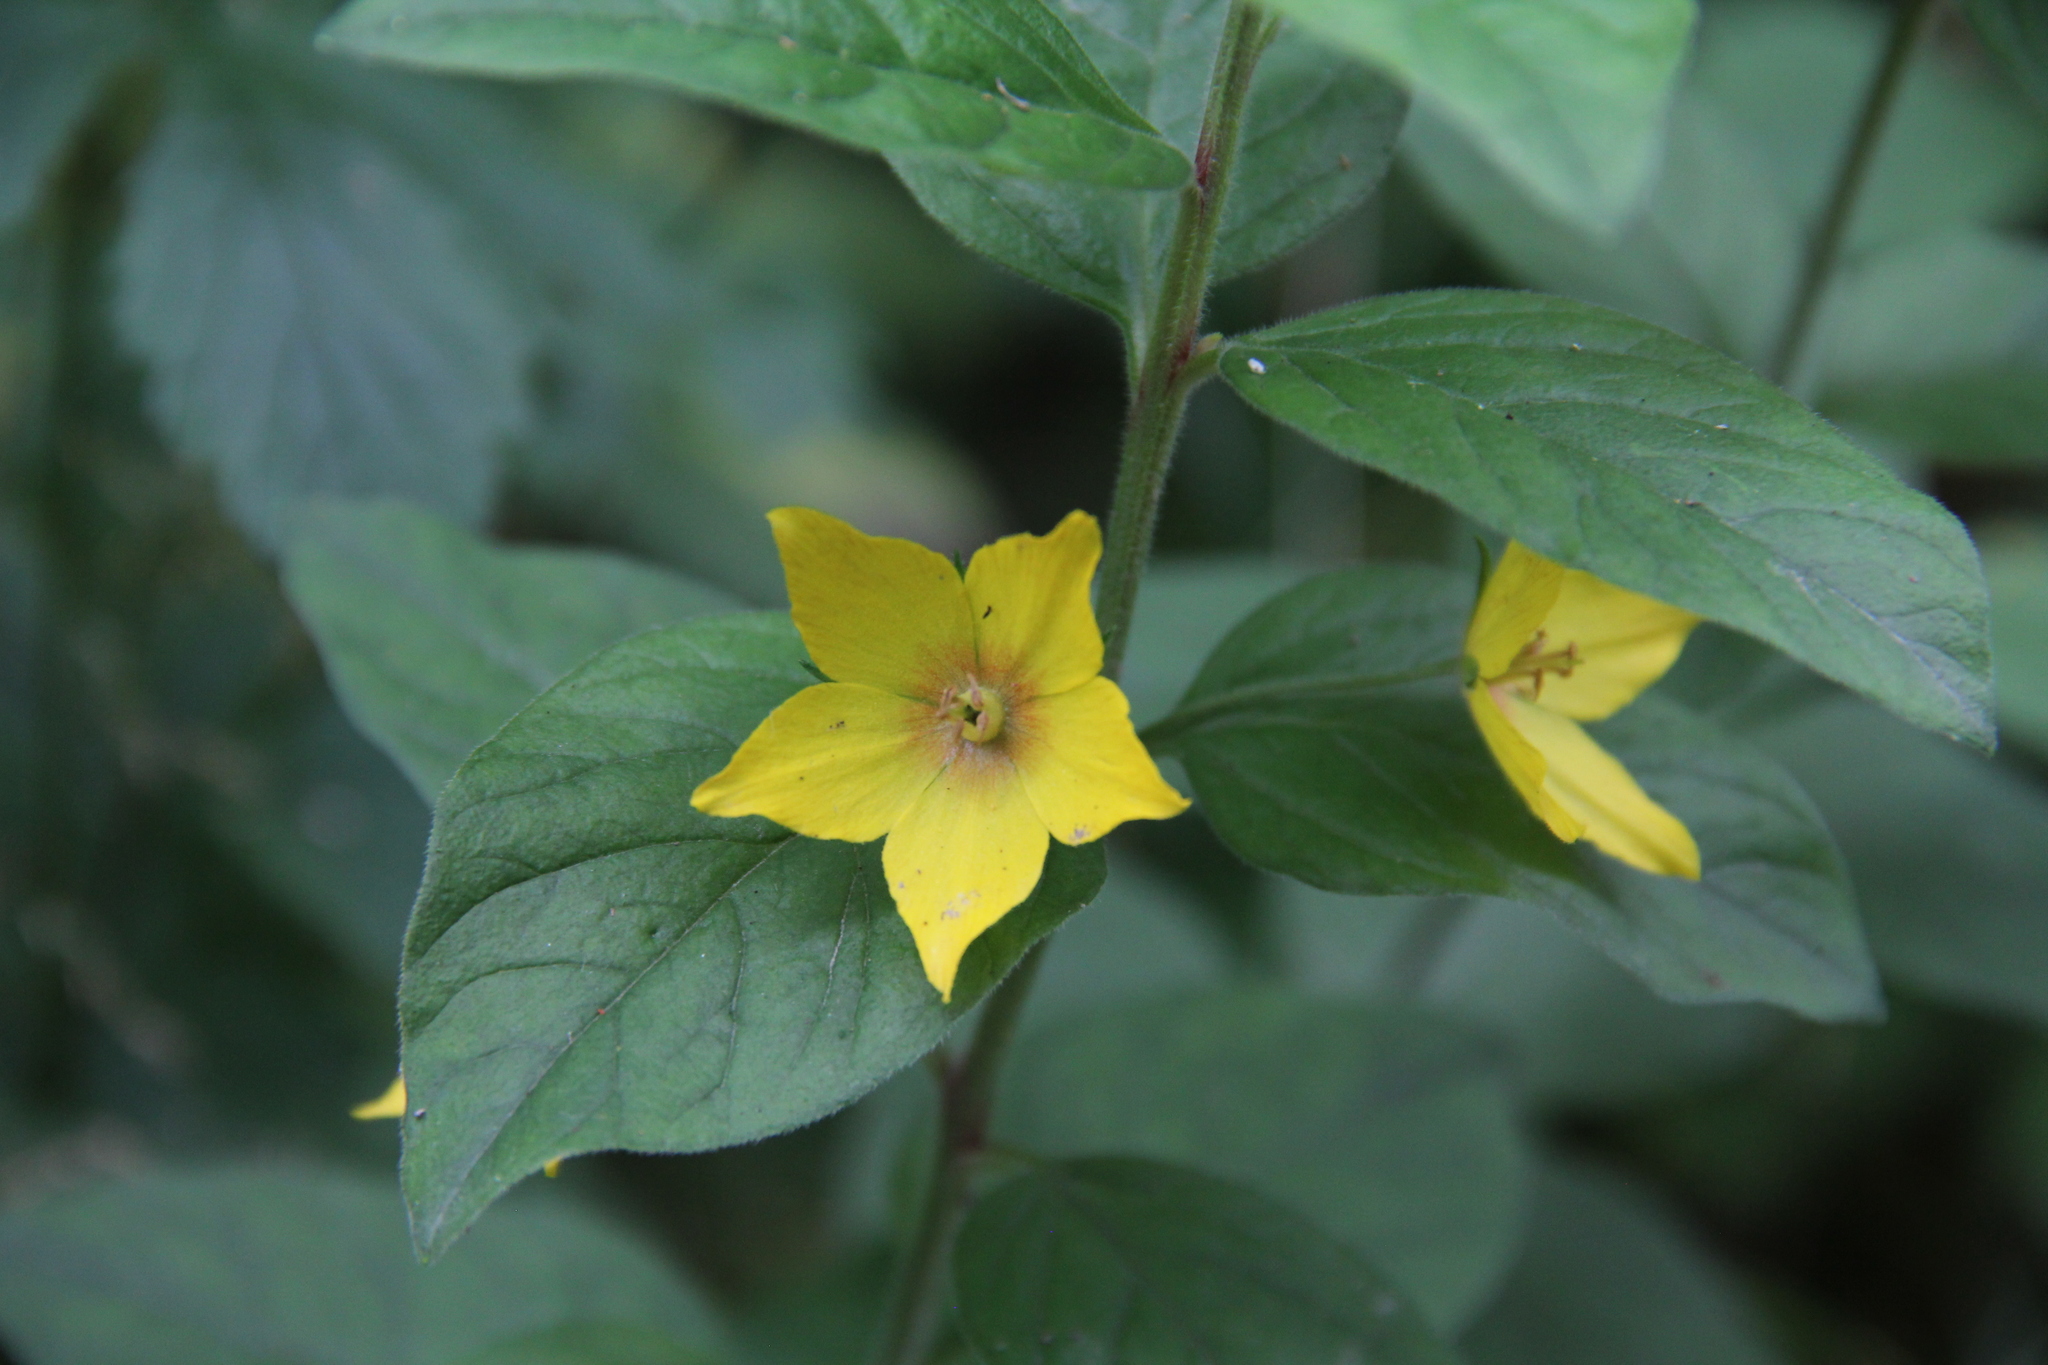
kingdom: Plantae
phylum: Tracheophyta
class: Magnoliopsida
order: Ericales
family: Primulaceae
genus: Lysimachia
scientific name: Lysimachia punctata
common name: Dotted loosestrife
